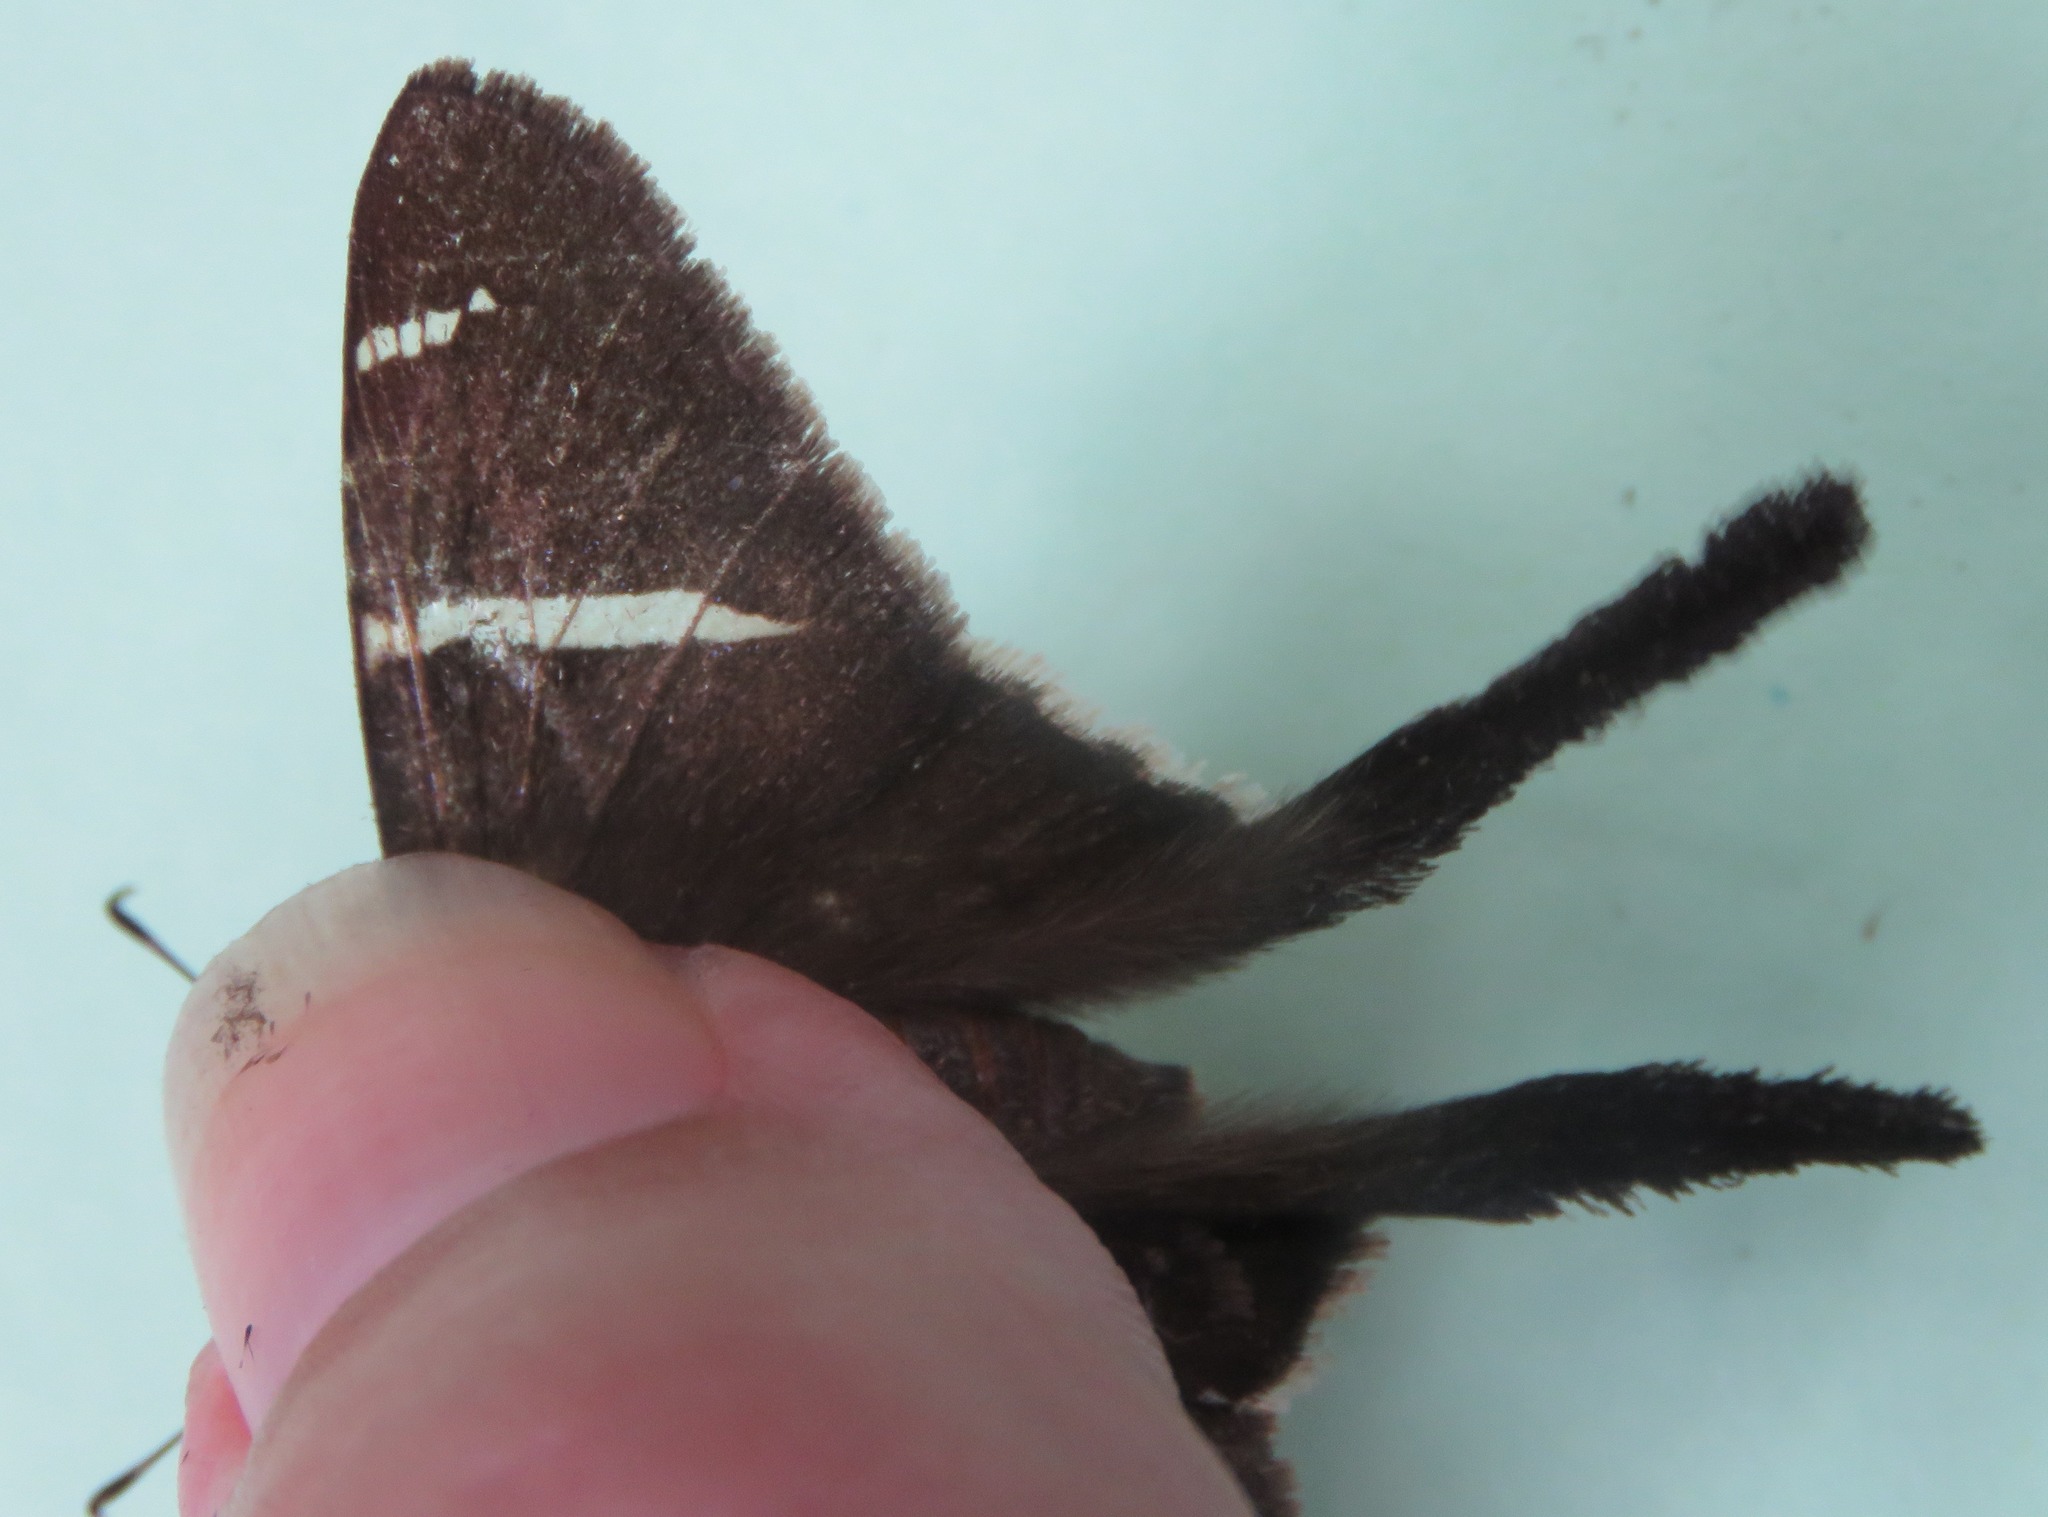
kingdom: Animalia
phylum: Arthropoda
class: Insecta
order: Lepidoptera
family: Hesperiidae
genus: Urbanus
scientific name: Urbanus tanna
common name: Tanna longtail
